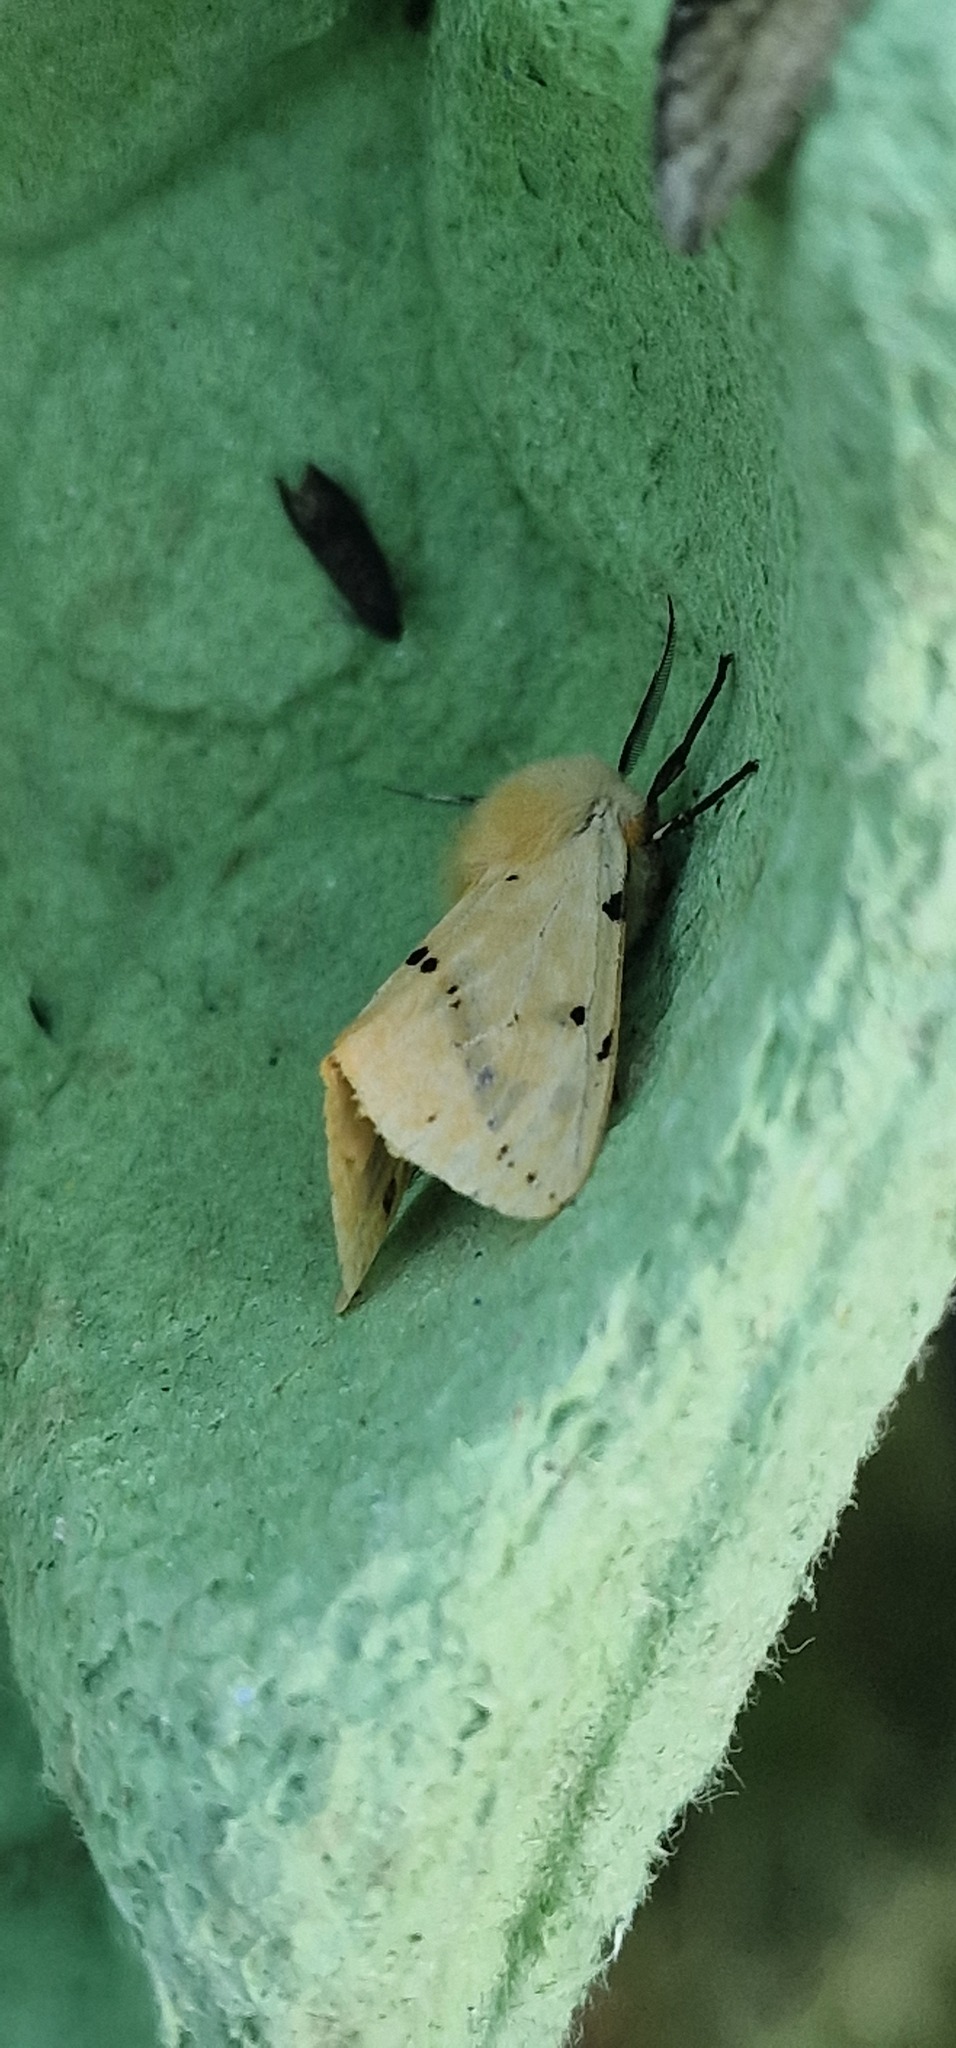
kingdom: Animalia
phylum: Arthropoda
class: Insecta
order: Lepidoptera
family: Erebidae
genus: Spilarctia
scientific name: Spilarctia lutea
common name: Buff ermine
